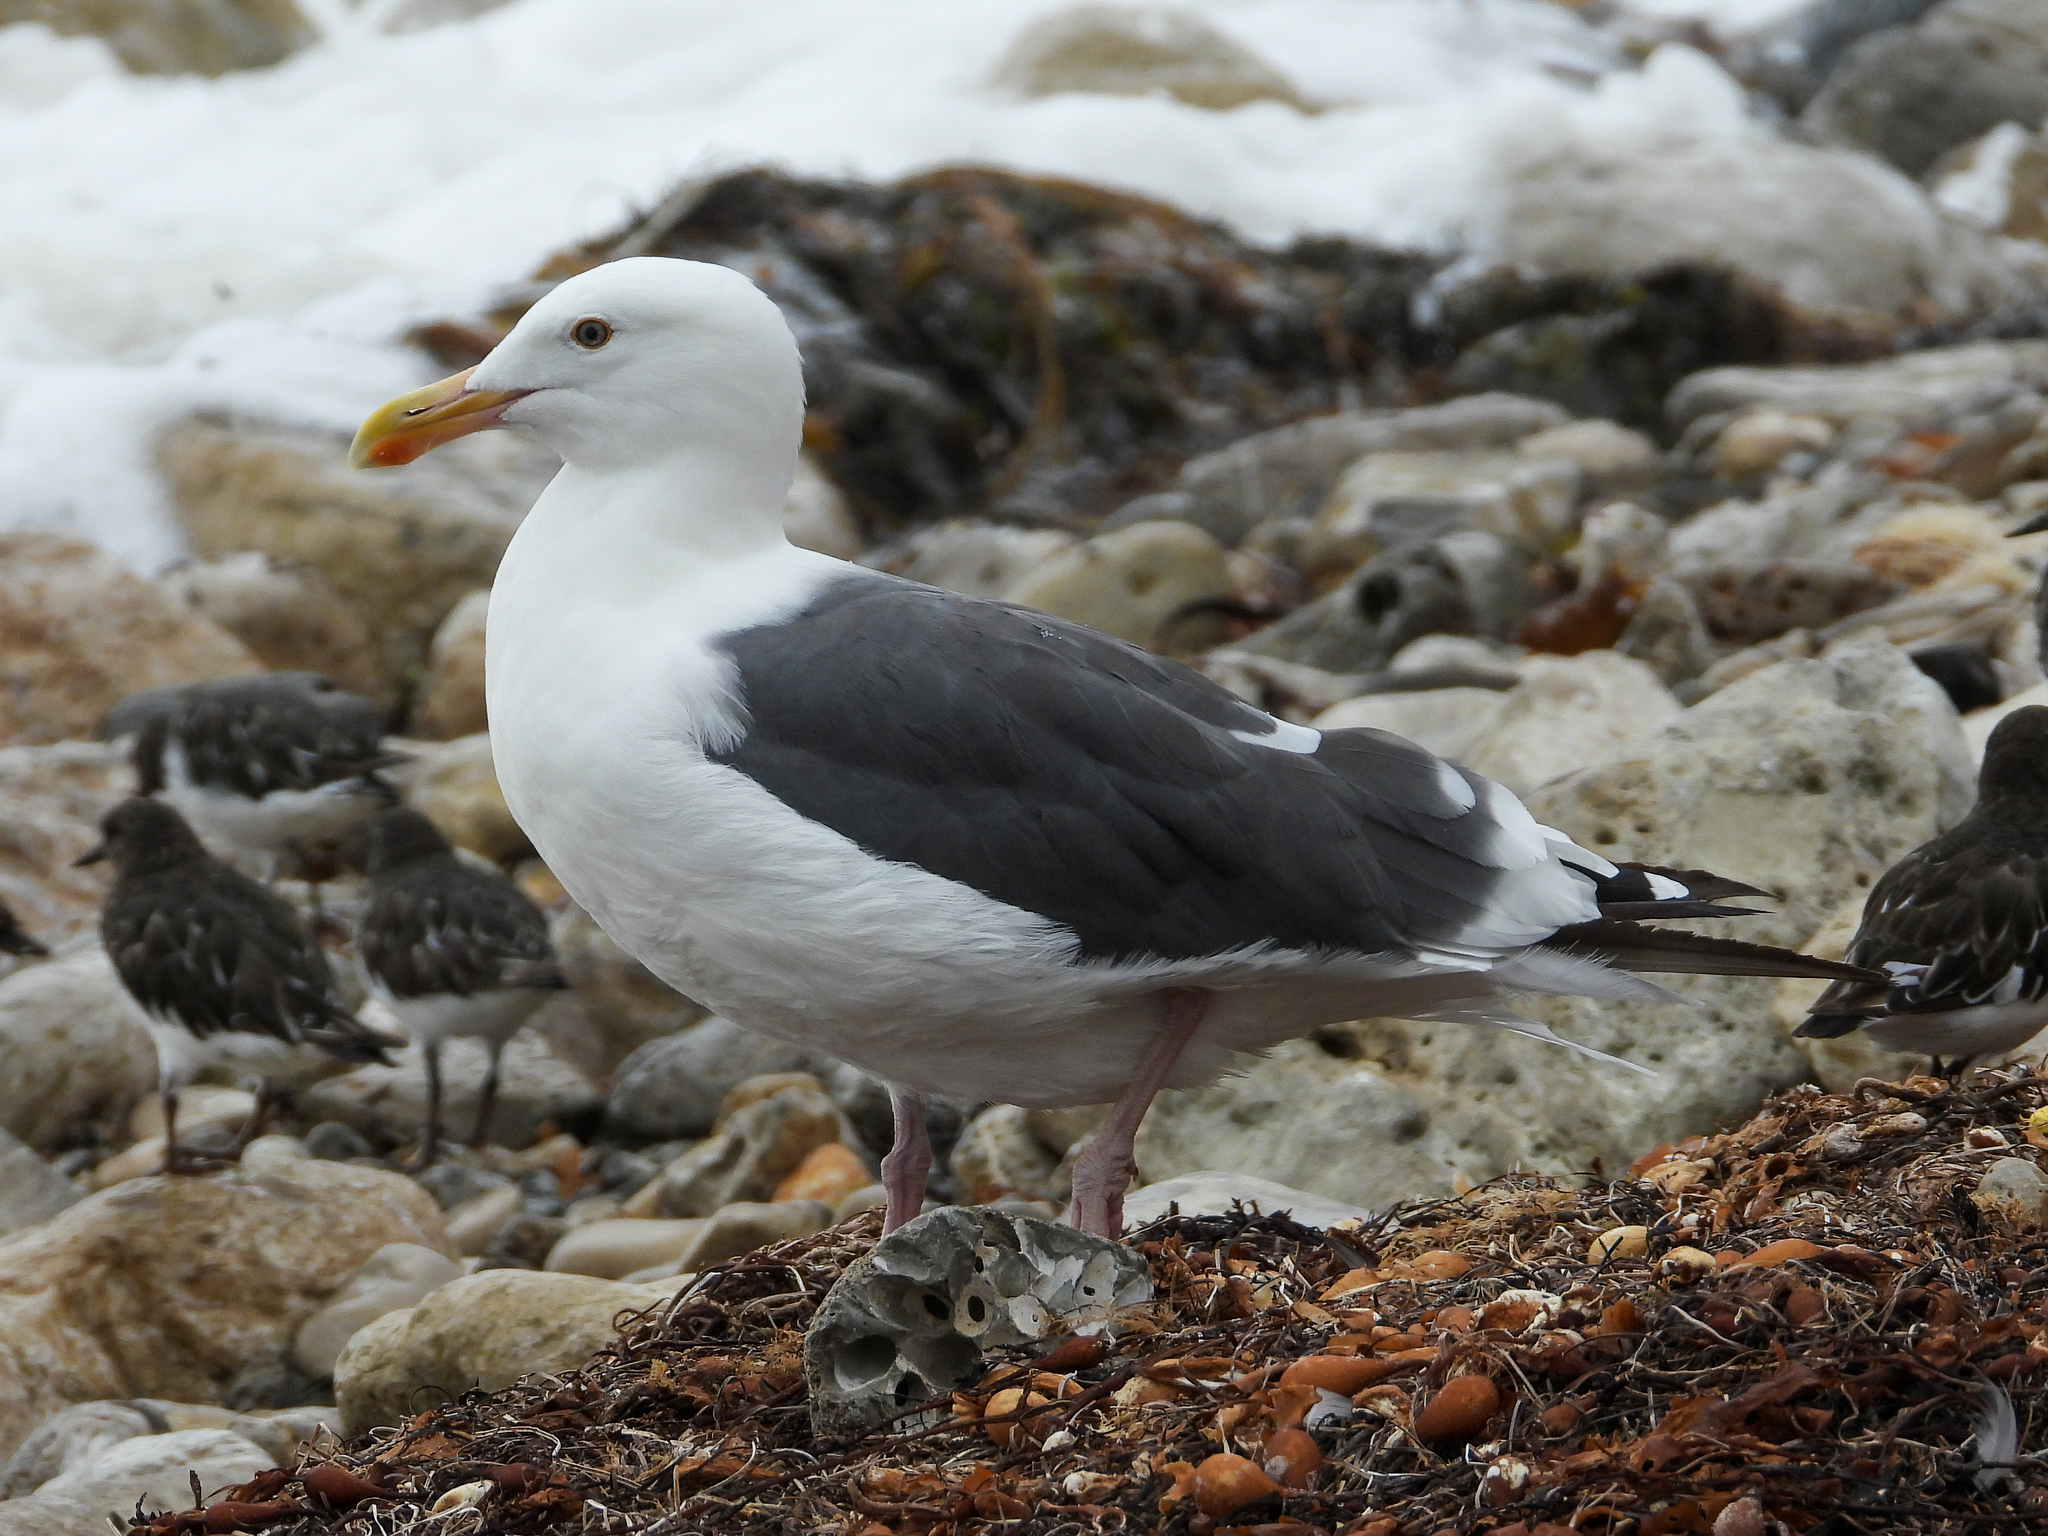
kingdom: Animalia
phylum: Chordata
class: Aves
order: Charadriiformes
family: Laridae
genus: Larus
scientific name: Larus occidentalis
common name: Western gull
